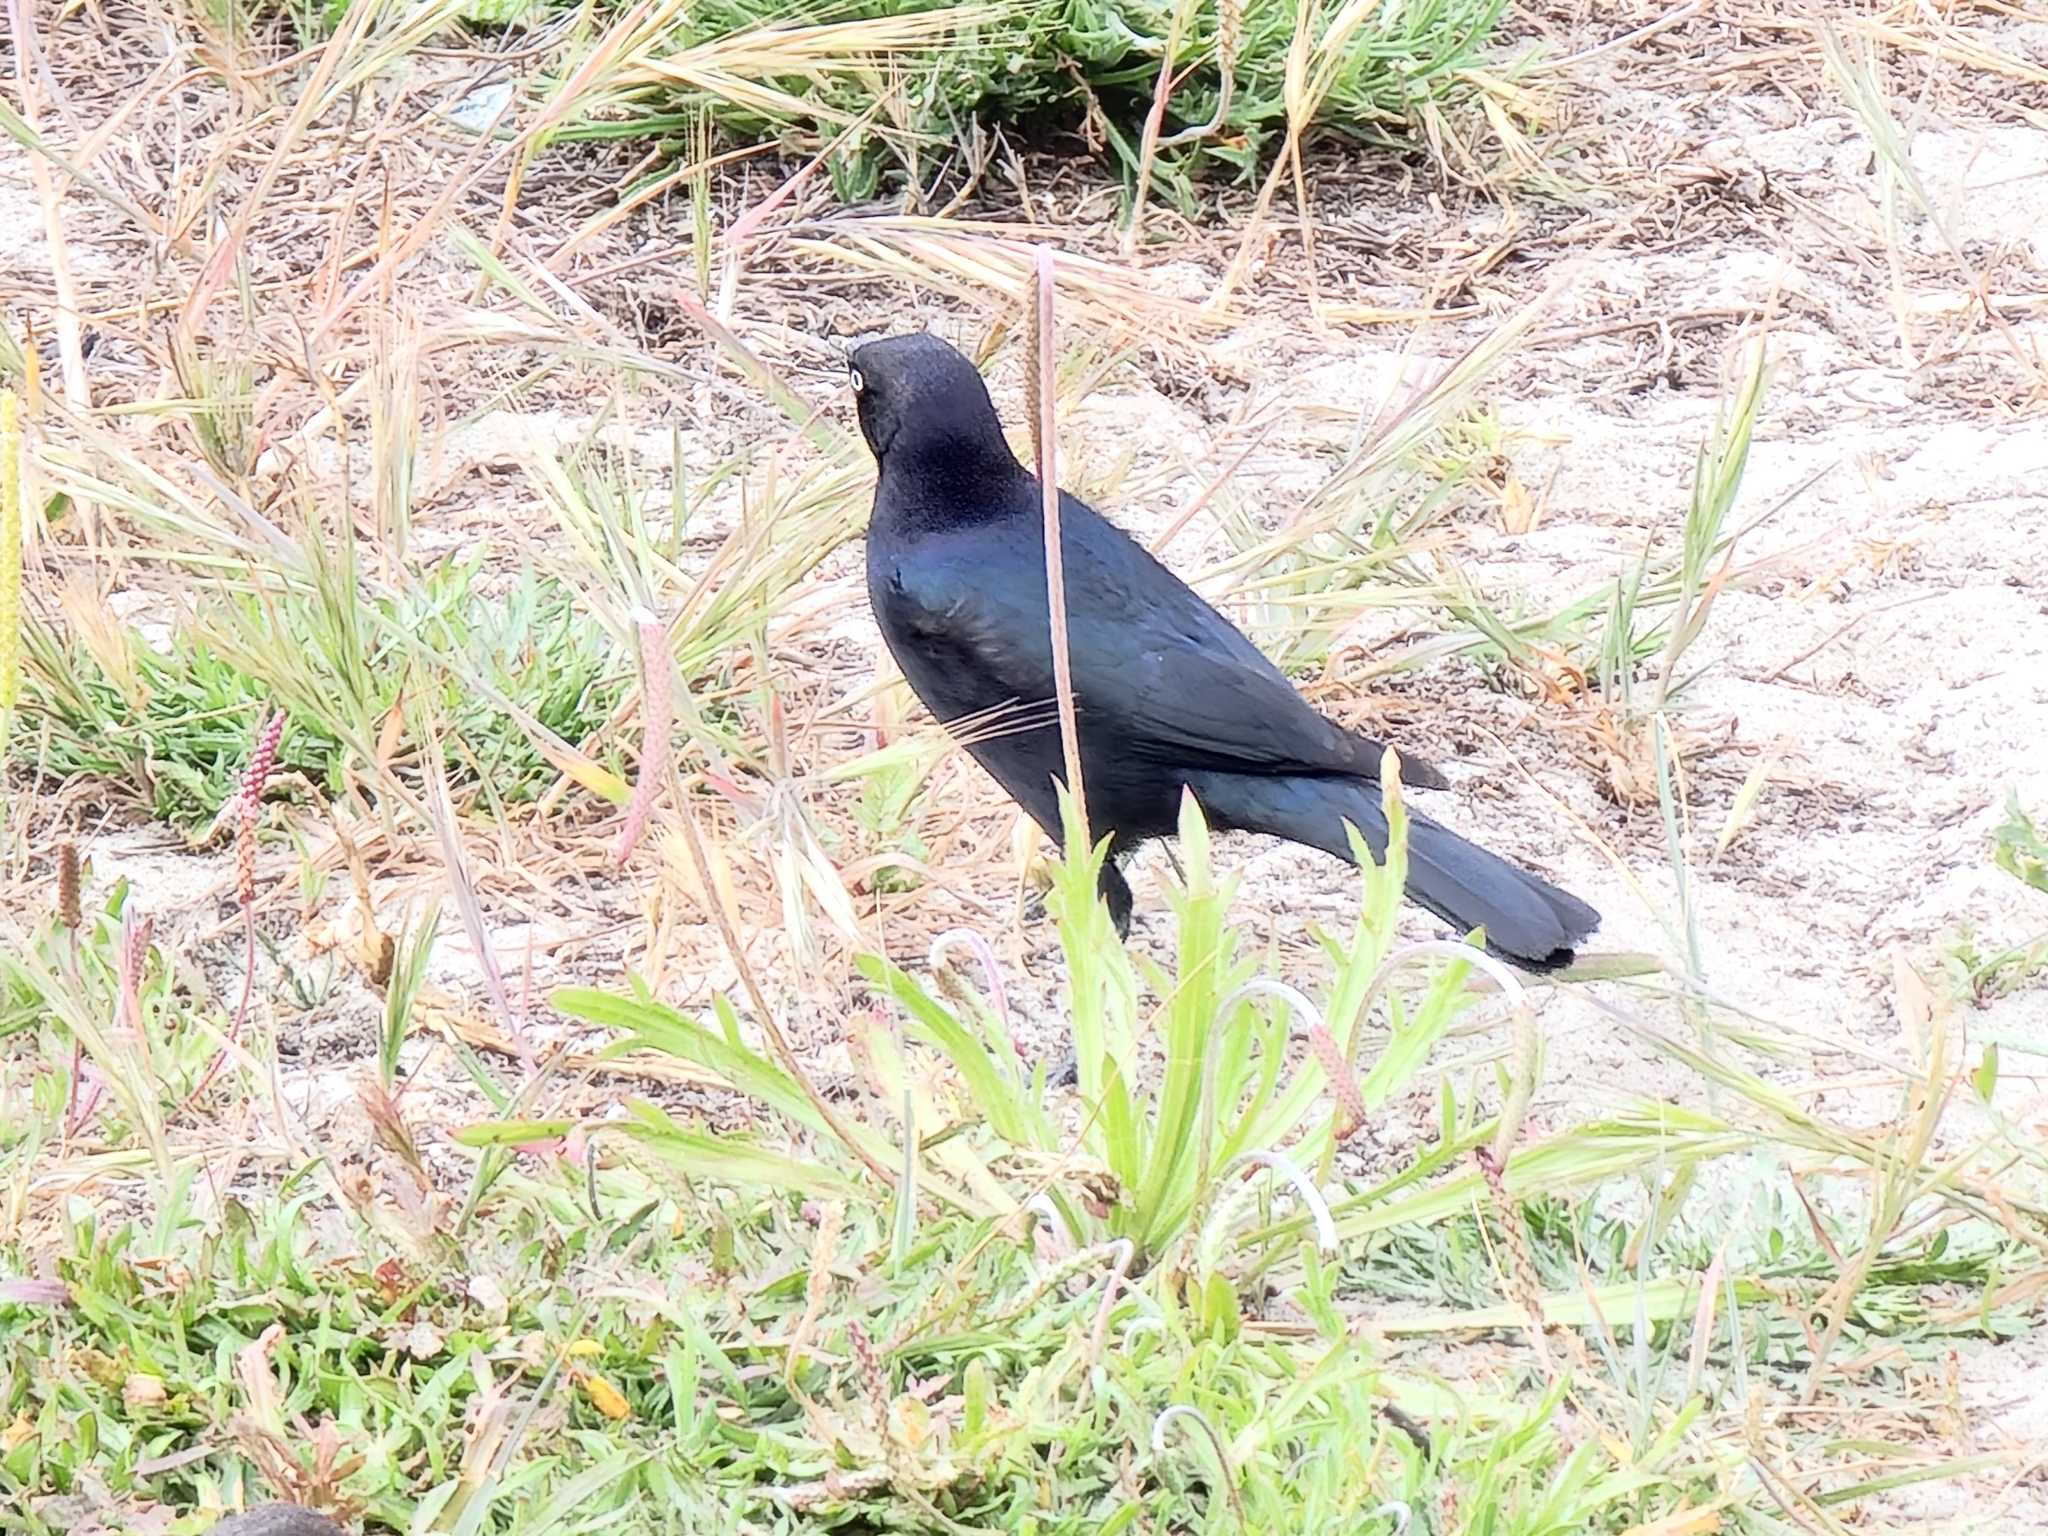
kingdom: Animalia
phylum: Chordata
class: Aves
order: Passeriformes
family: Icteridae
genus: Euphagus
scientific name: Euphagus cyanocephalus
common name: Brewer's blackbird
